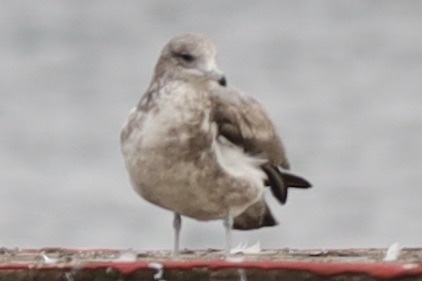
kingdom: Animalia
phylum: Chordata
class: Aves
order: Charadriiformes
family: Laridae
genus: Larus
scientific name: Larus californicus
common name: California gull
